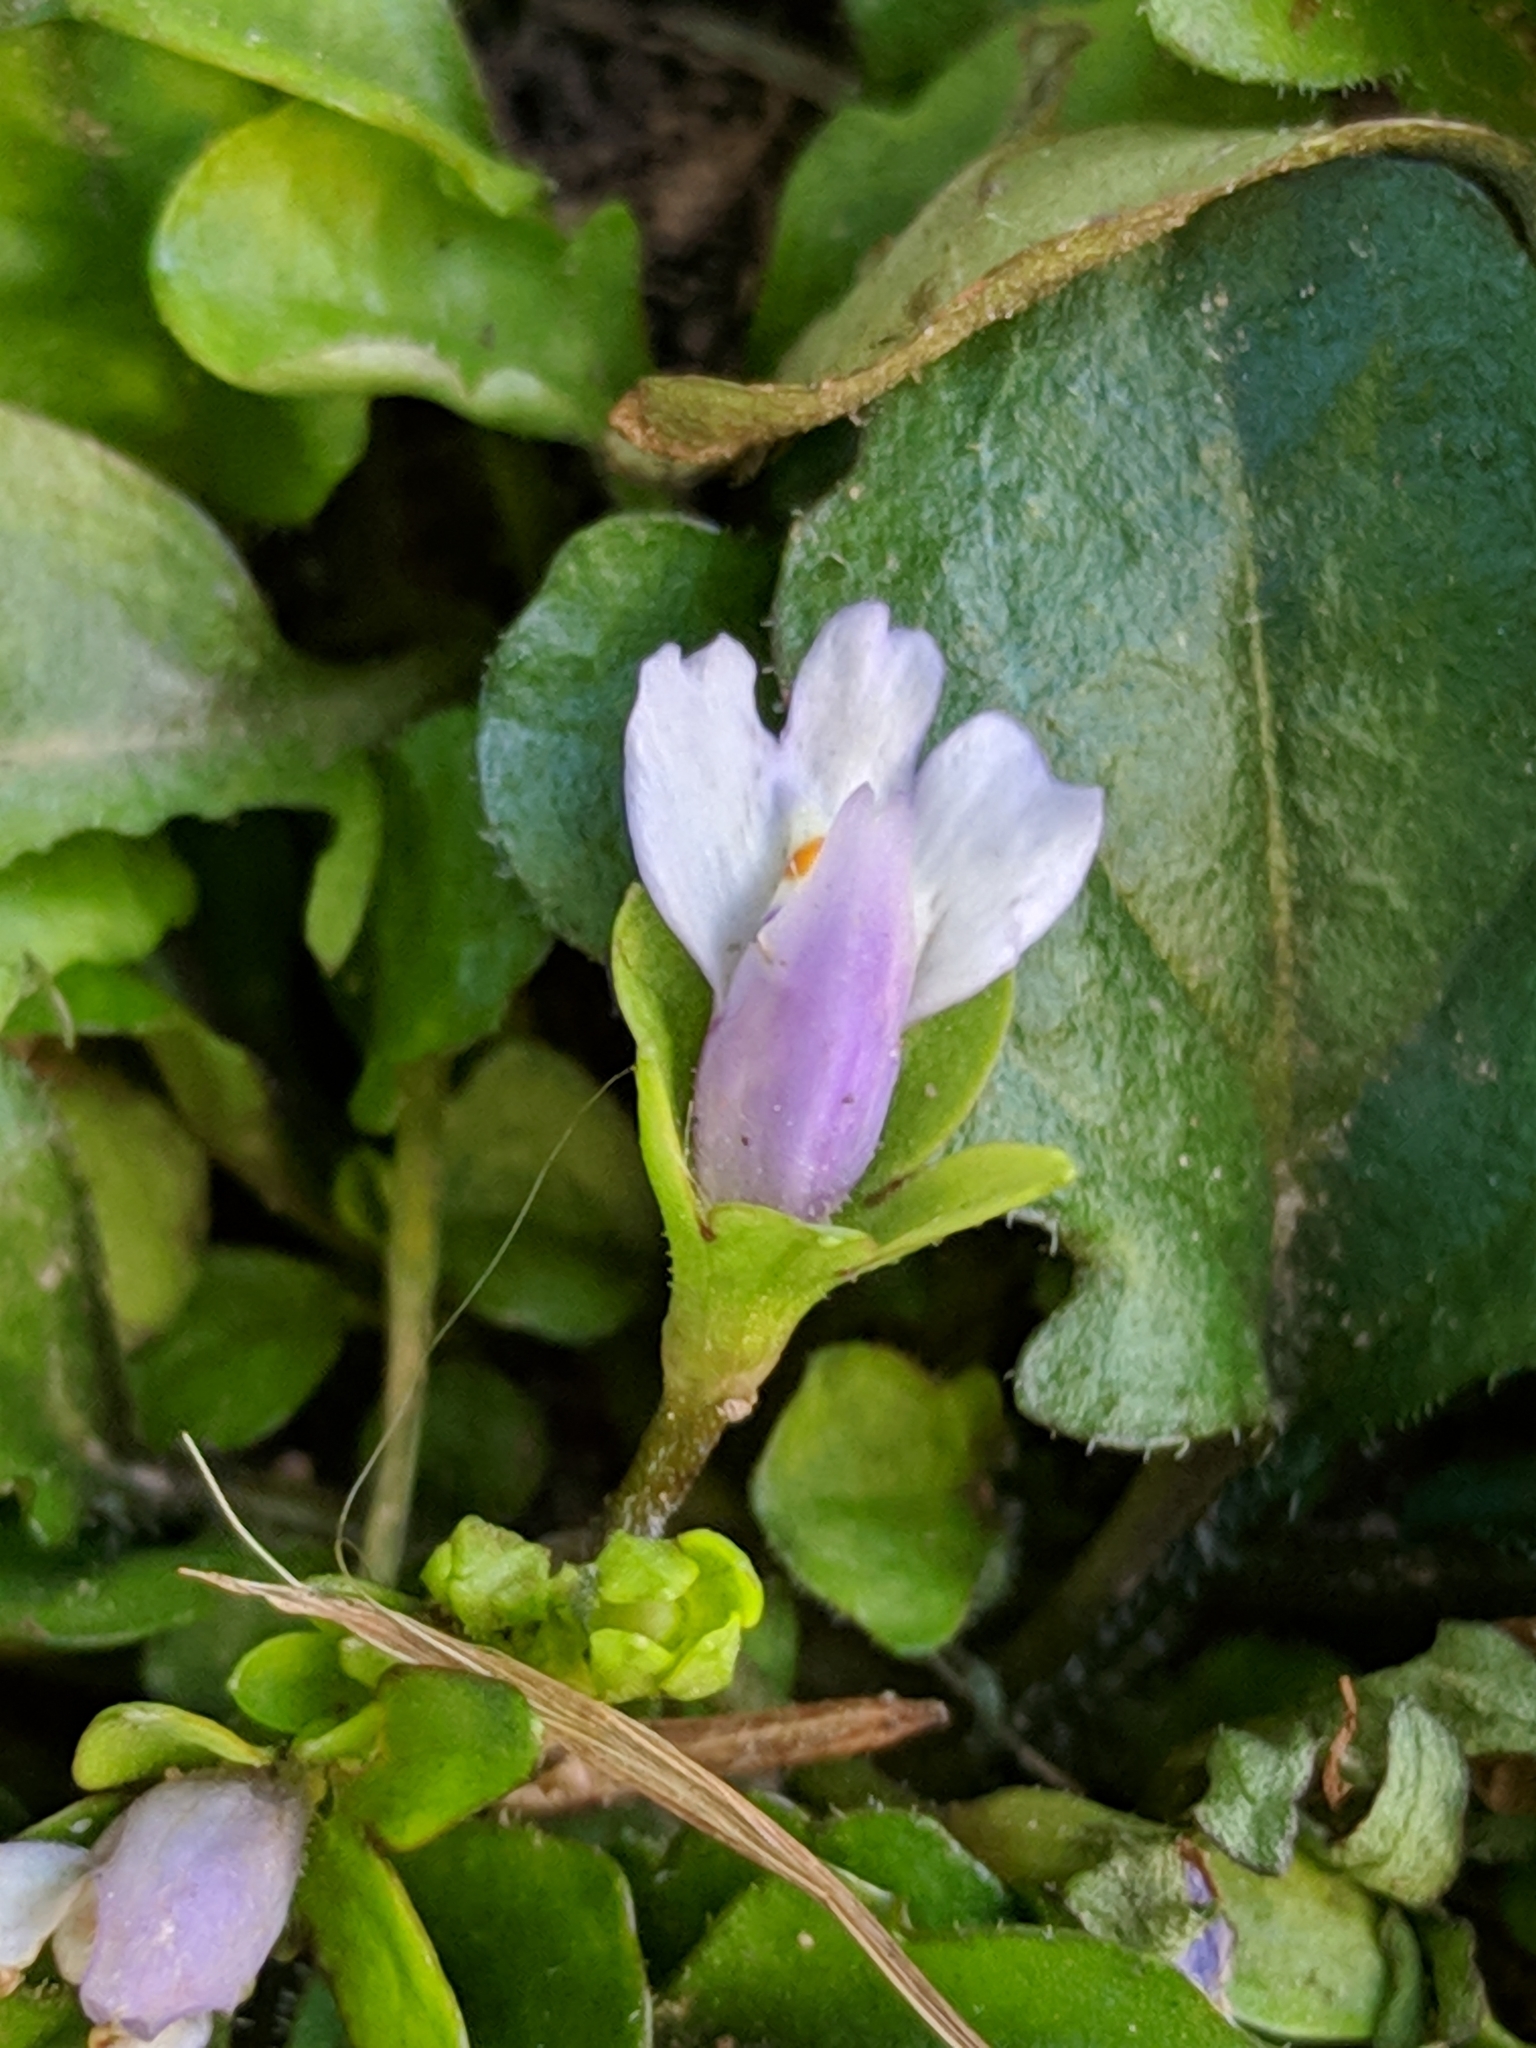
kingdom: Plantae
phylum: Tracheophyta
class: Magnoliopsida
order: Lamiales
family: Mazaceae
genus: Mazus
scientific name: Mazus pumilus
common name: Japanese mazus
